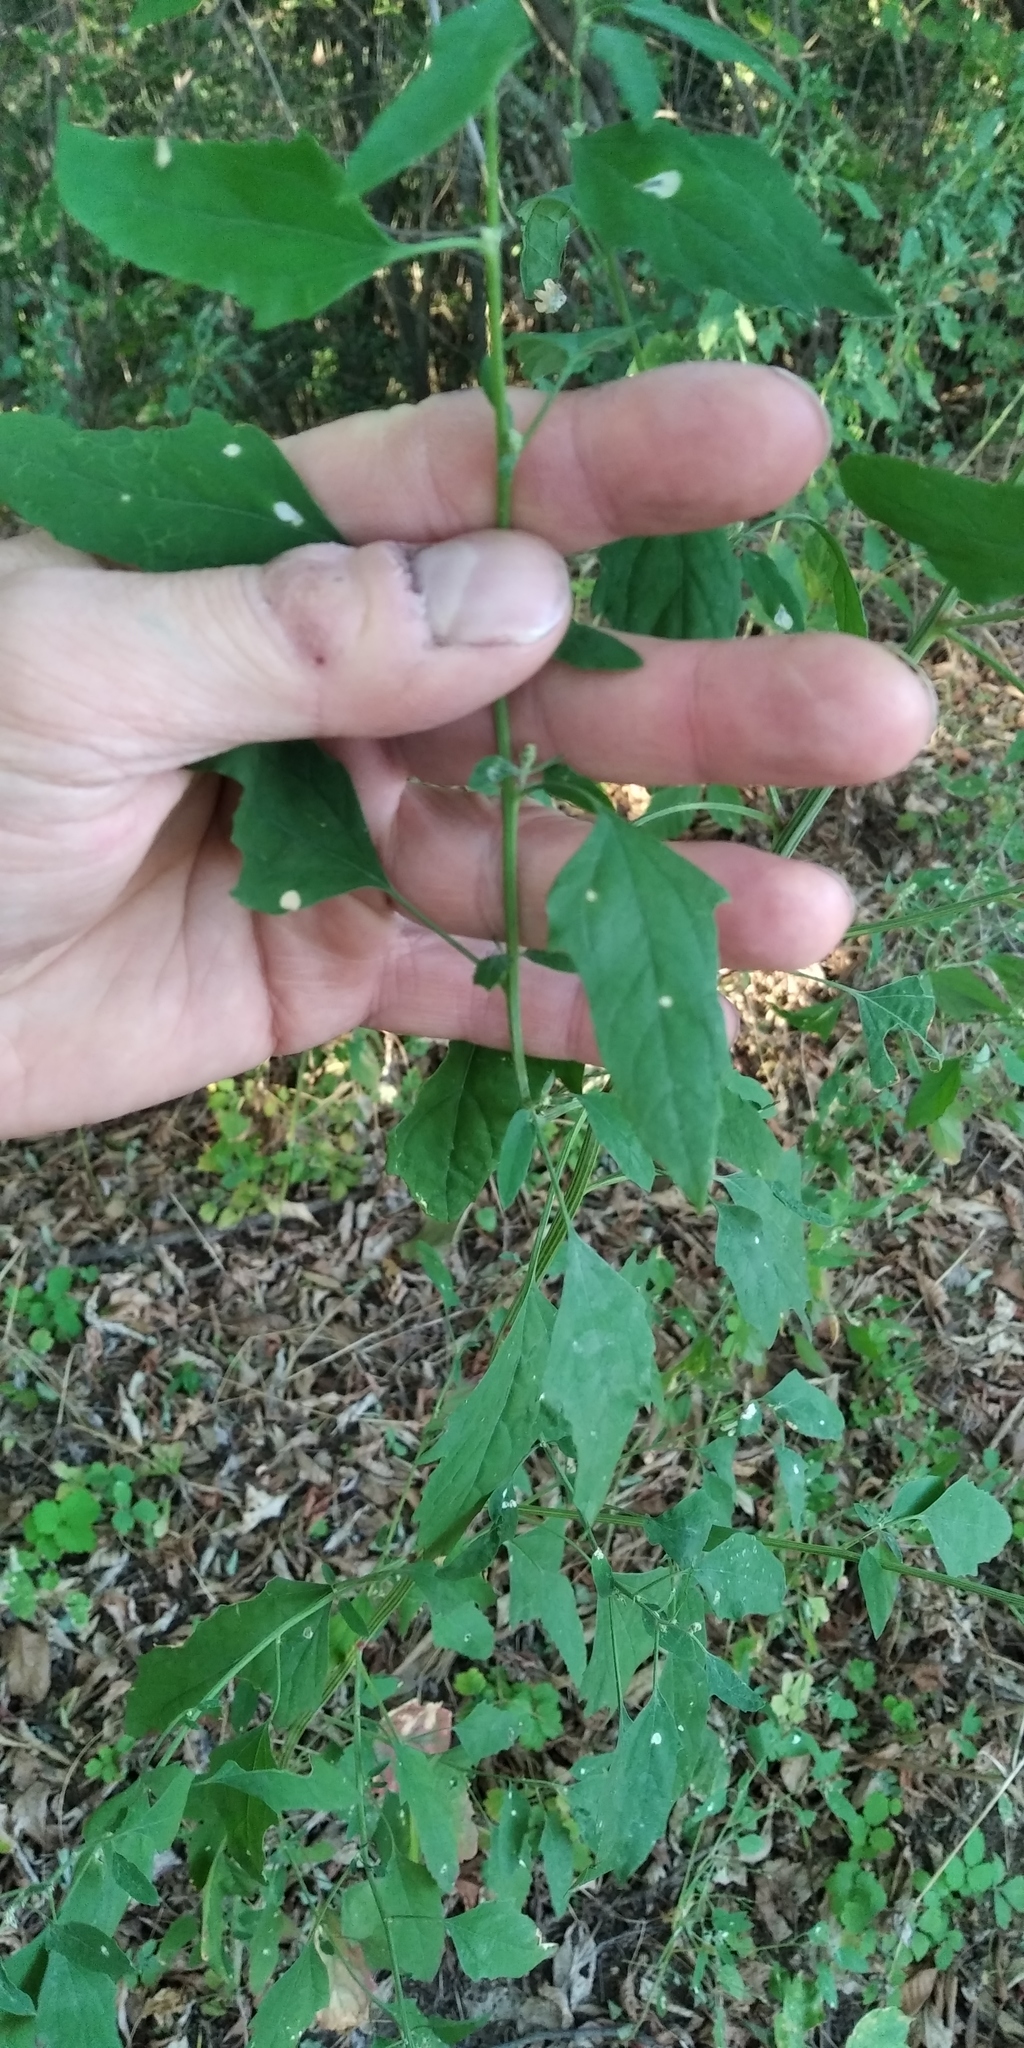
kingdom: Plantae
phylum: Tracheophyta
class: Magnoliopsida
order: Caryophyllales
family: Amaranthaceae
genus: Chenopodium
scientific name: Chenopodium suecicum
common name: Swedish goosefoot
